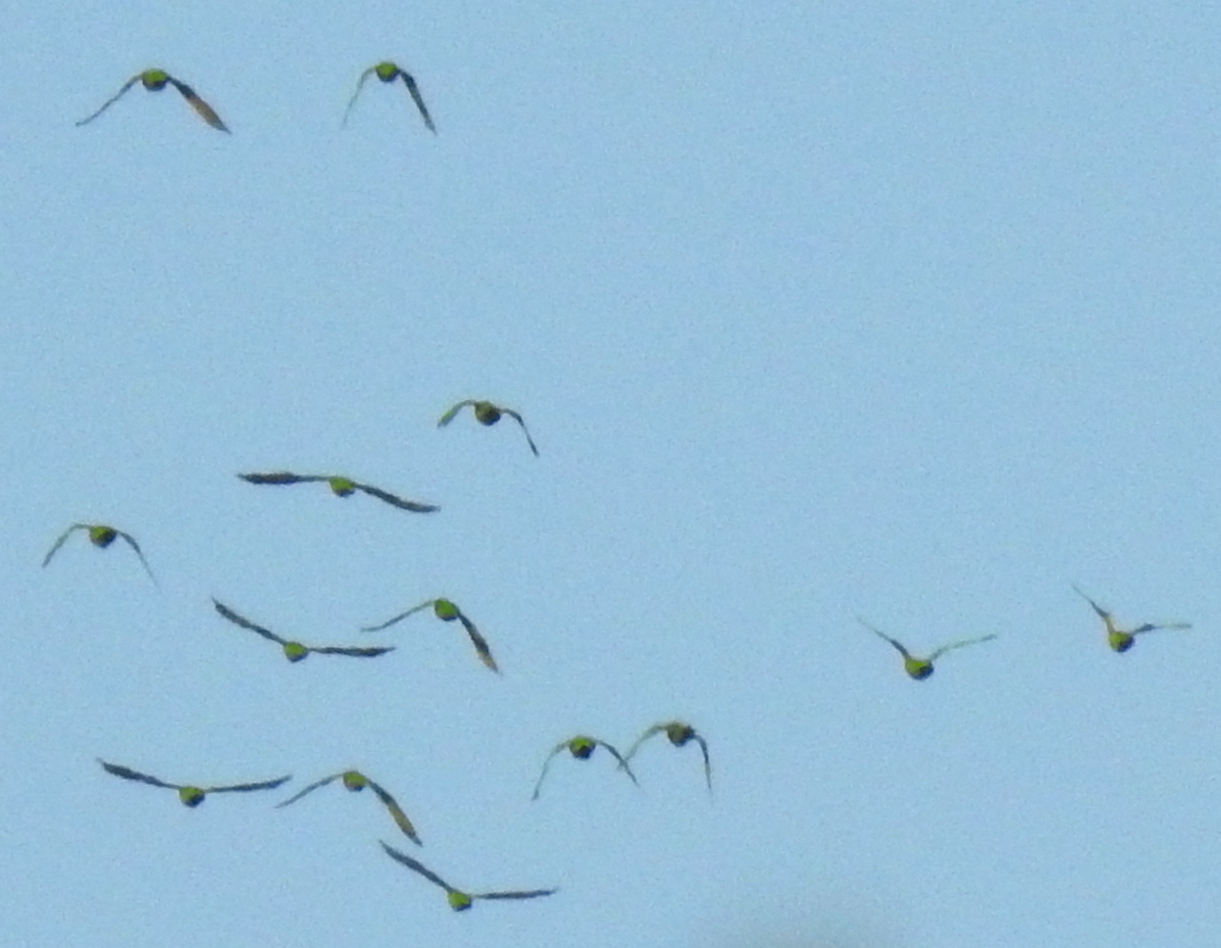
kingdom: Animalia
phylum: Chordata
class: Aves
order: Psittaciformes
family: Psittacidae
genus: Aratinga
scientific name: Aratinga erythrogenys
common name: Red-masked parakeet
